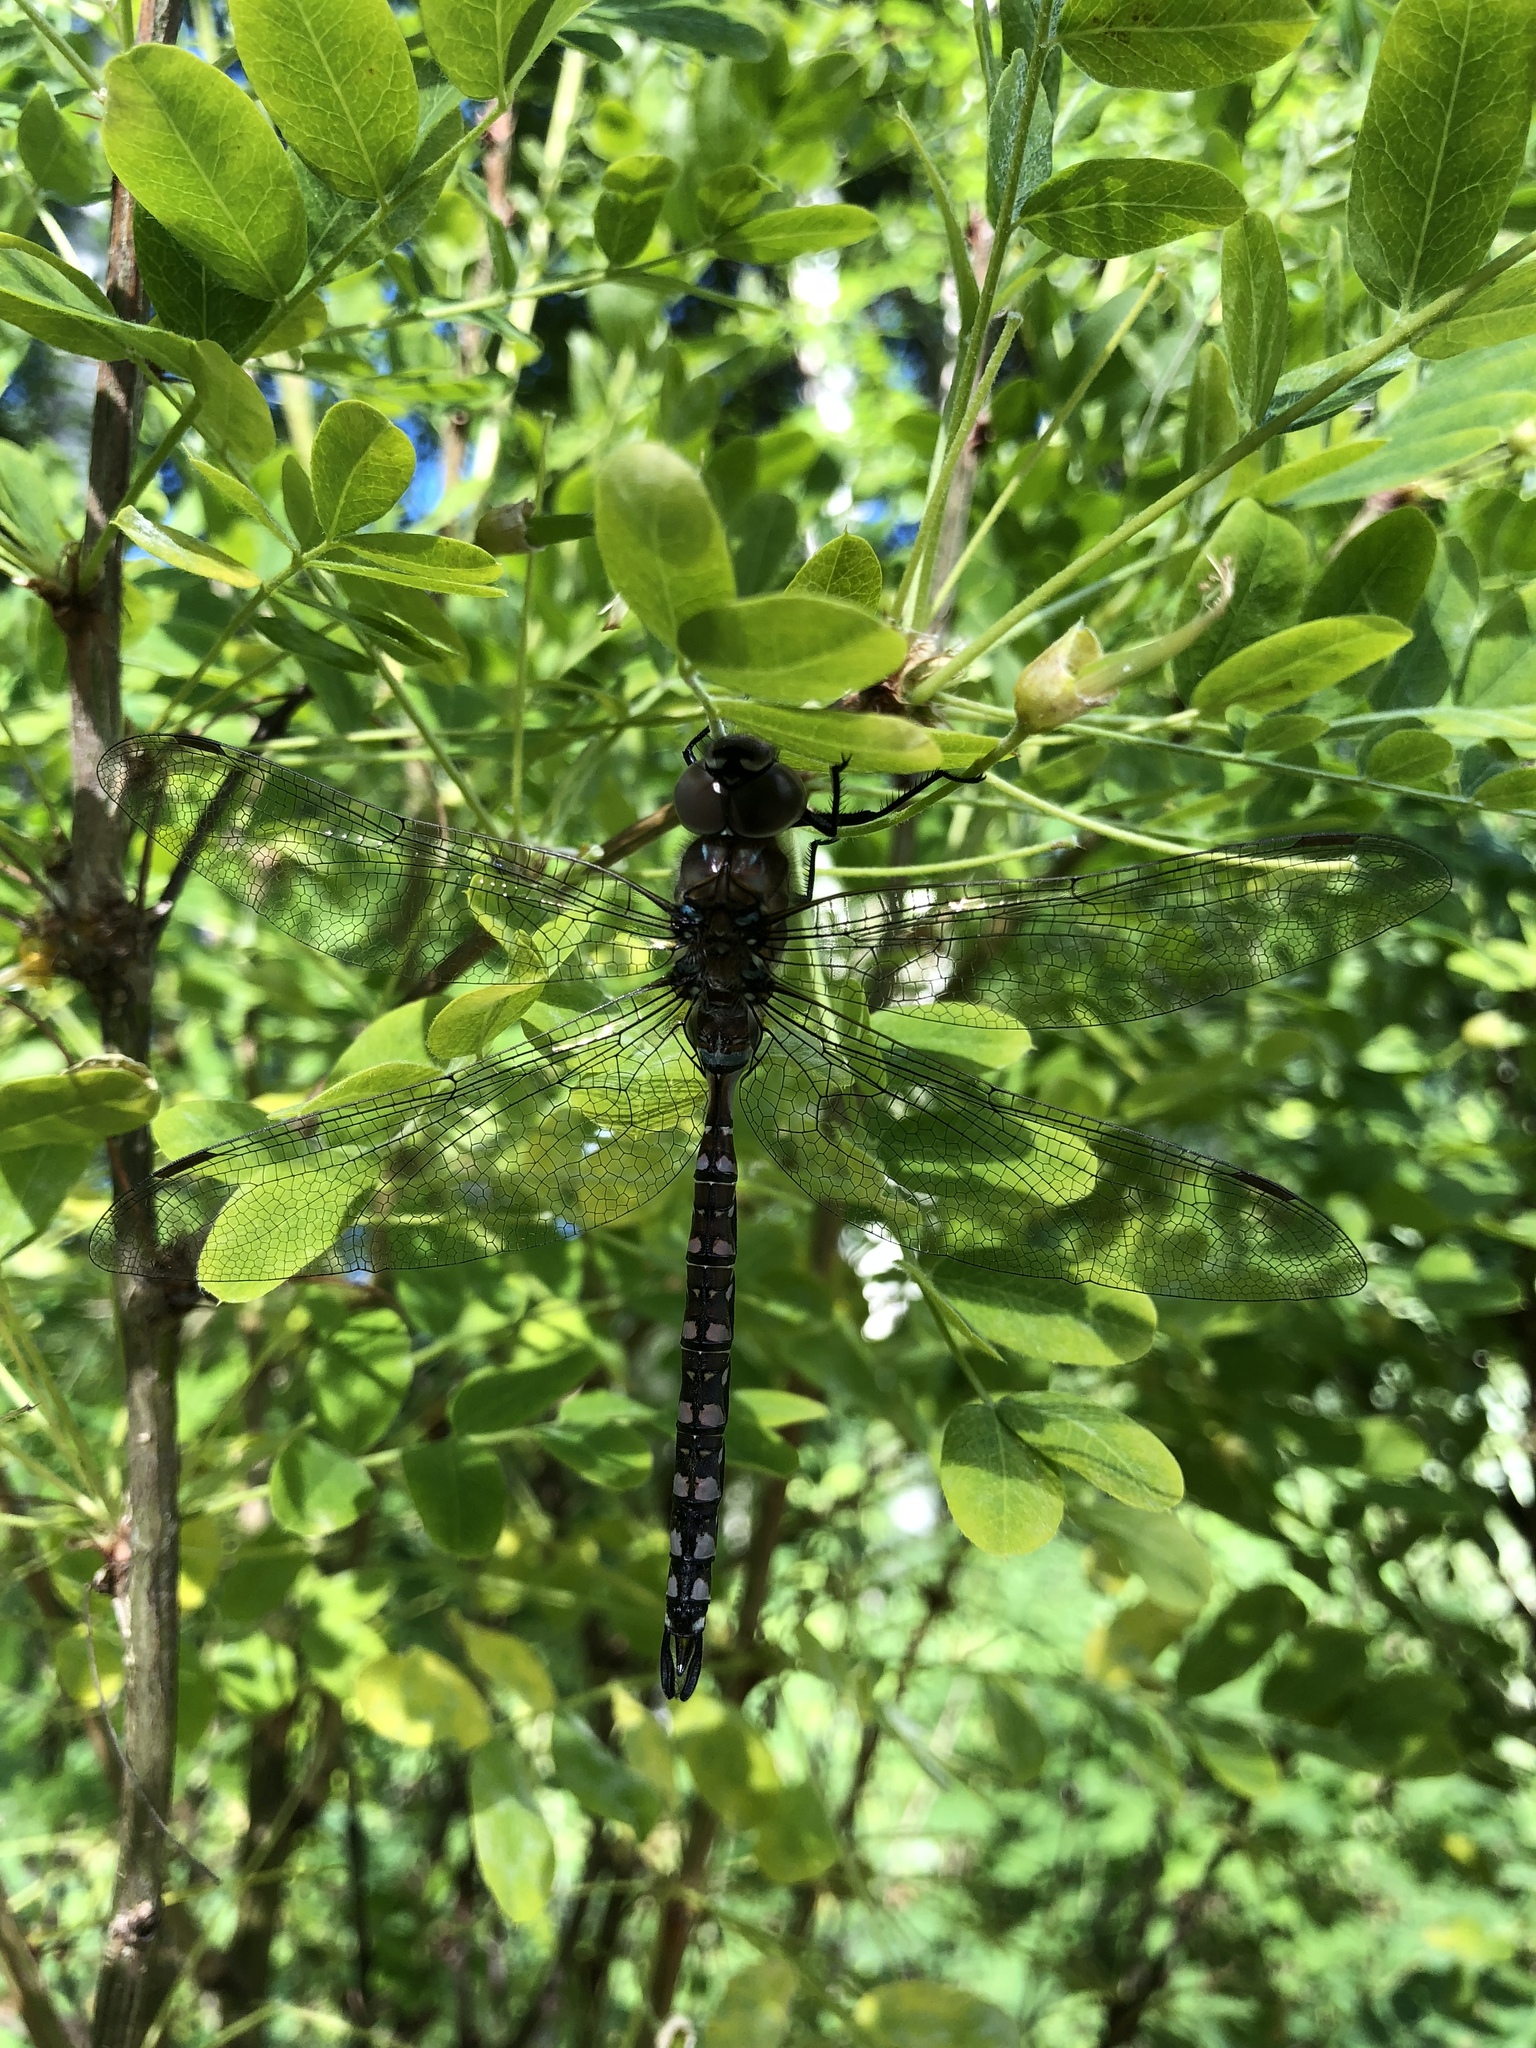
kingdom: Animalia
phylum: Arthropoda
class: Insecta
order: Odonata
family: Aeshnidae
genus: Aeshna
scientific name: Aeshna interrupta
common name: Variable darner
